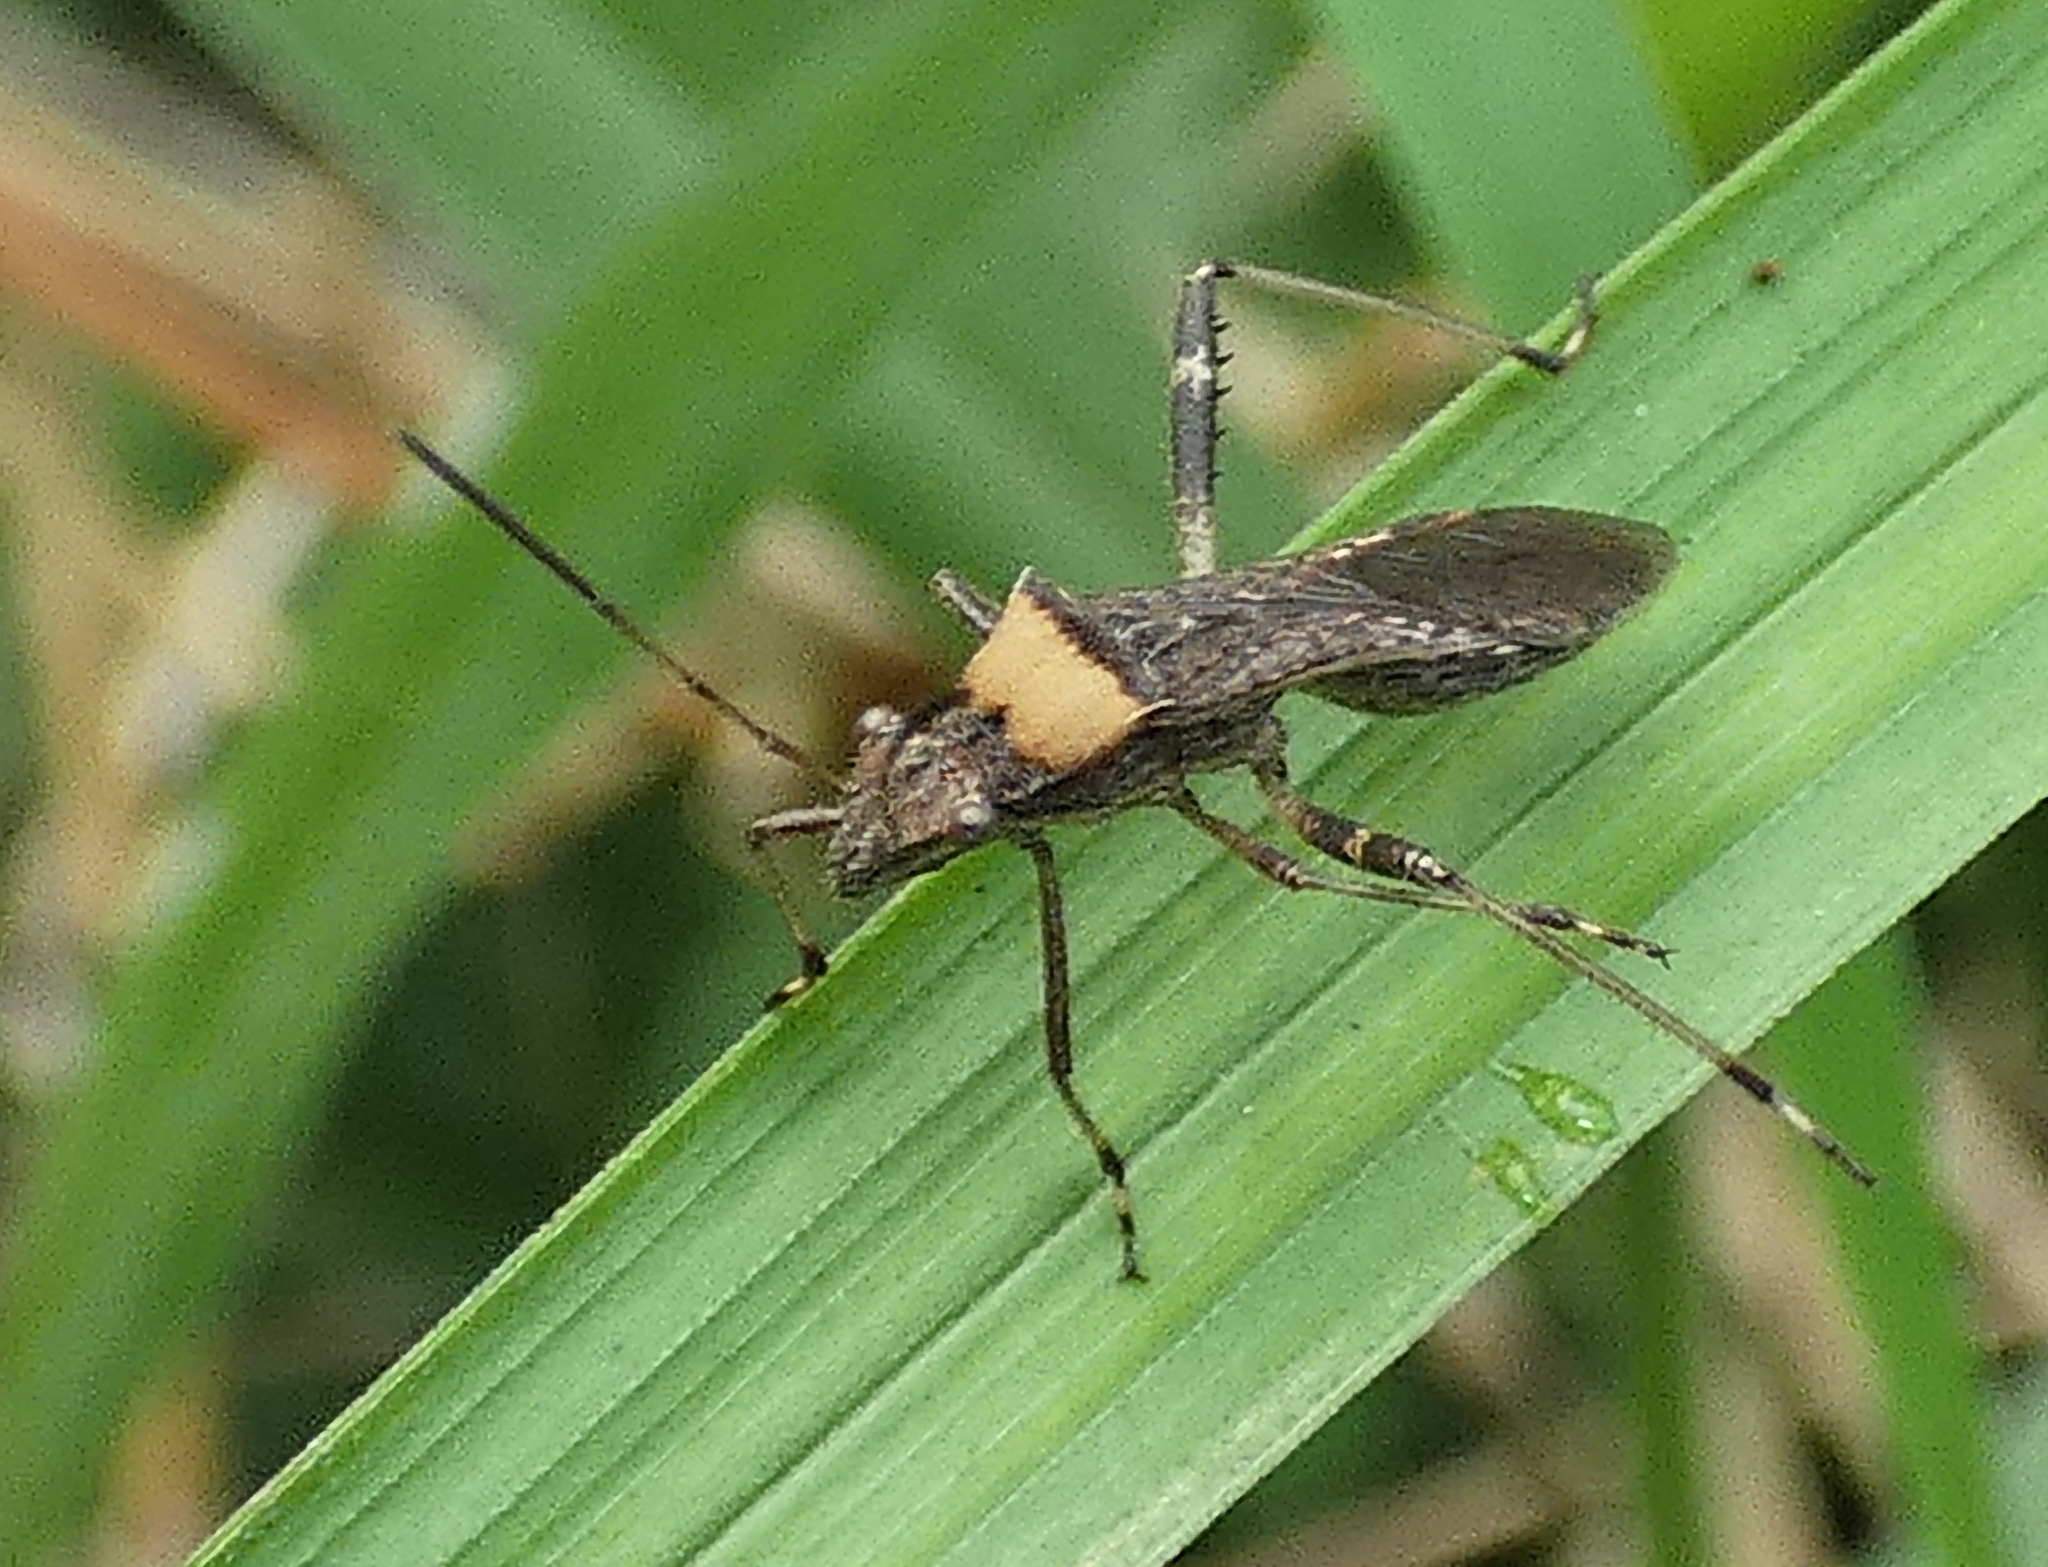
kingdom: Animalia
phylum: Arthropoda
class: Insecta
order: Hemiptera
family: Alydidae
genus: Neomegalotomus
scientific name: Neomegalotomus parvus
